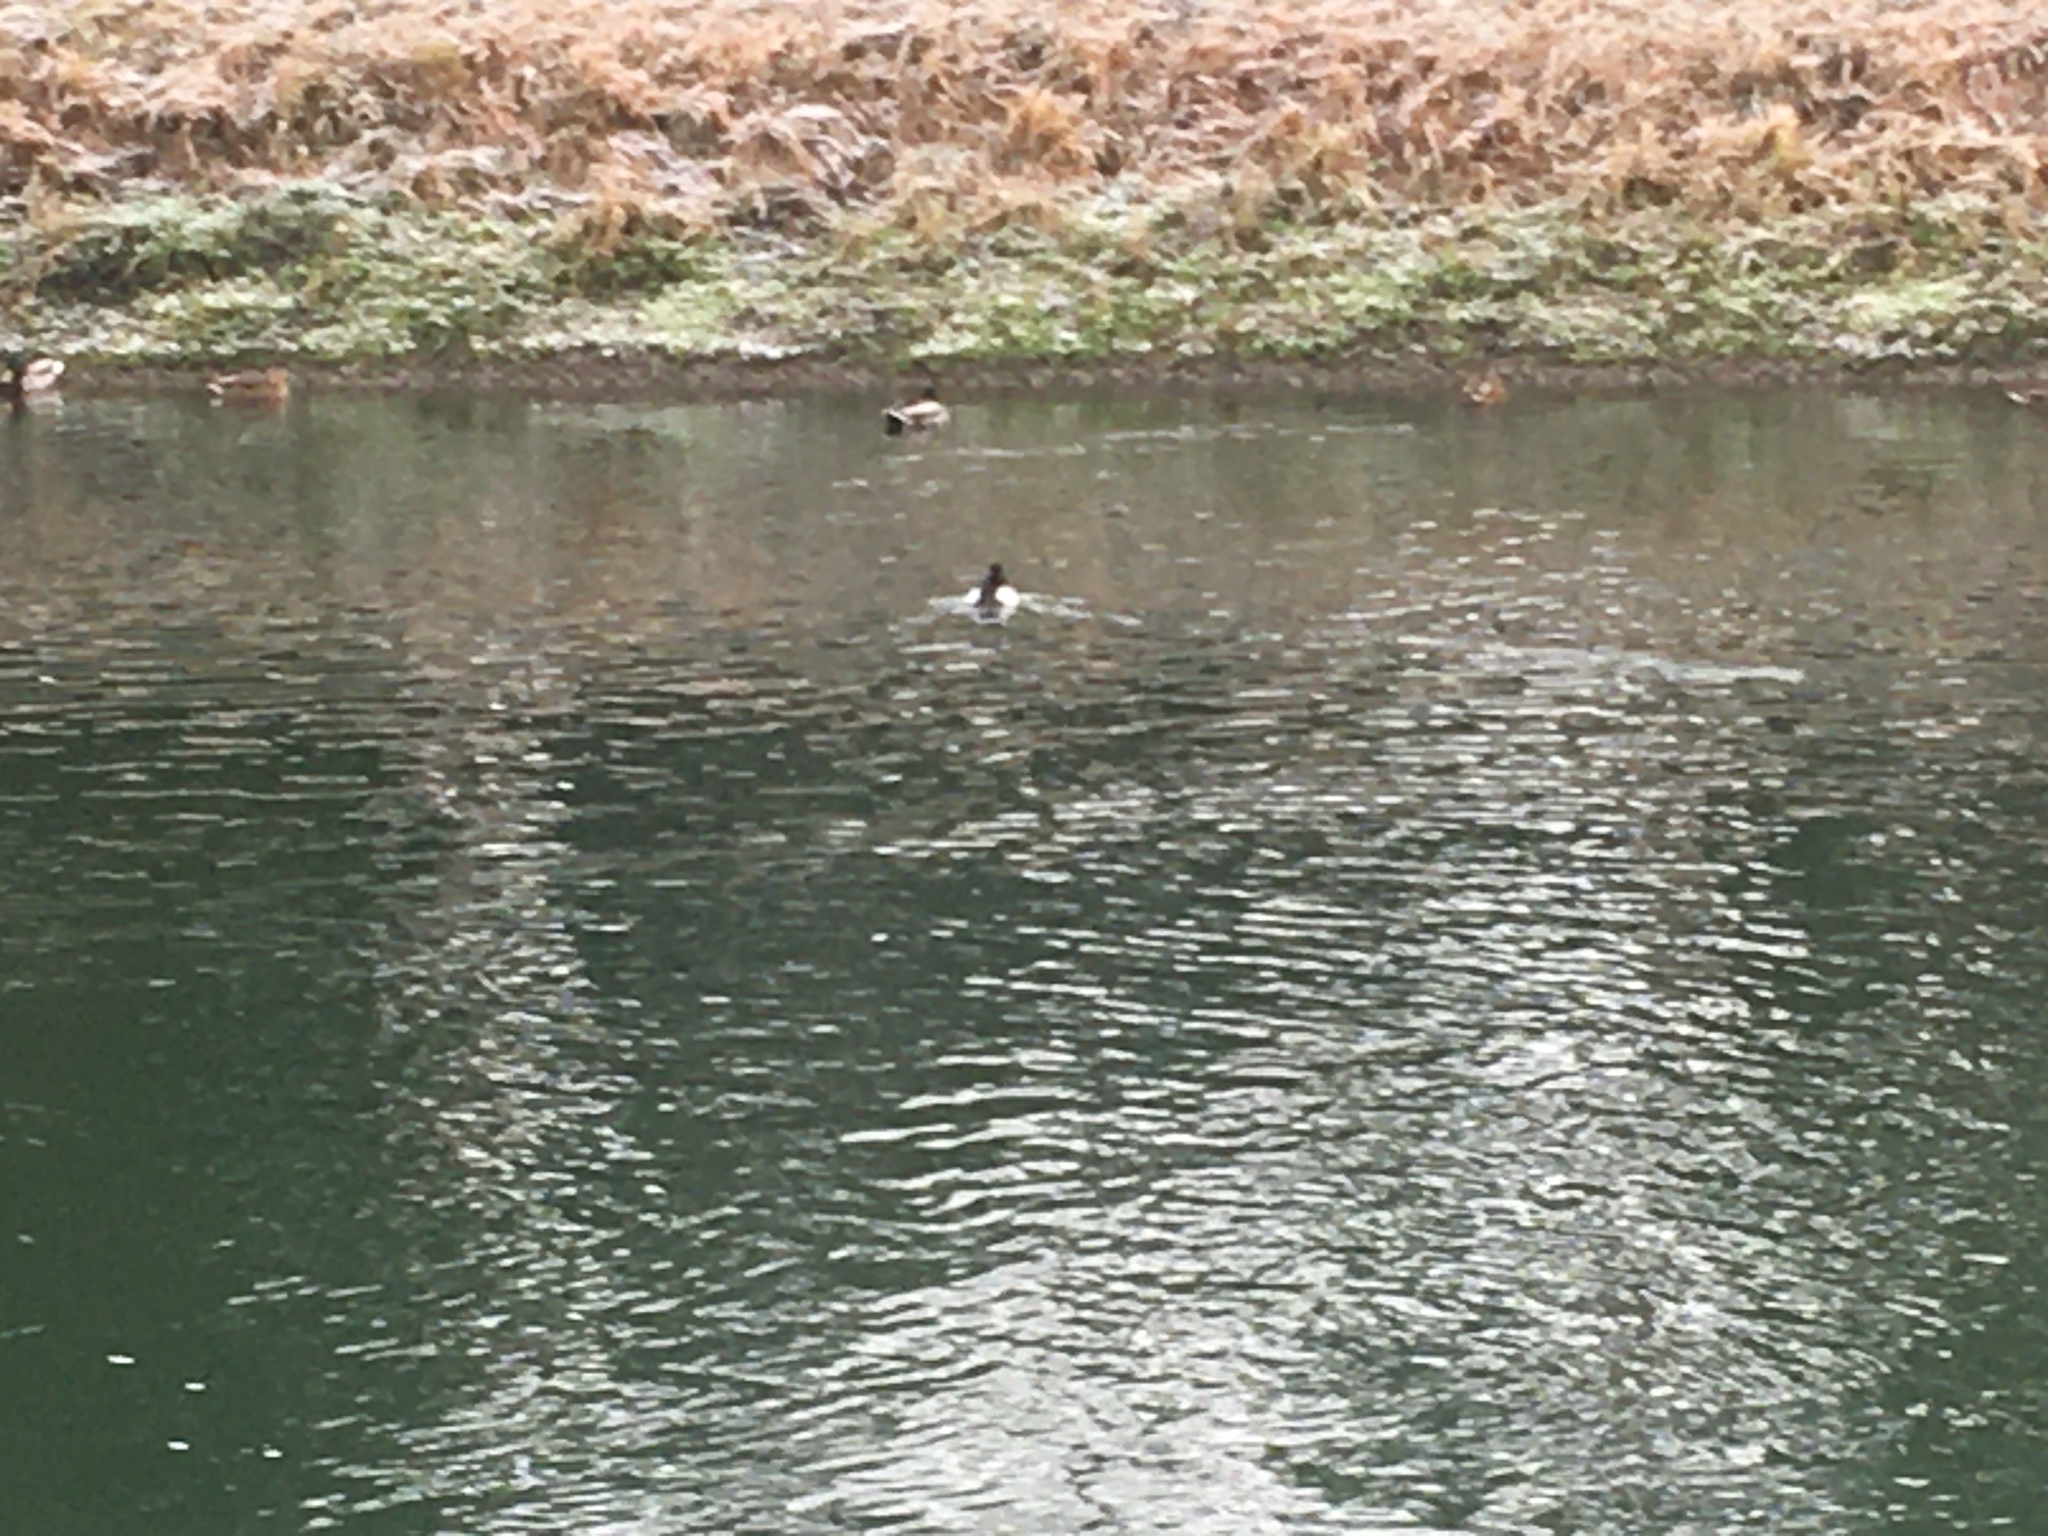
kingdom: Animalia
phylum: Chordata
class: Aves
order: Anseriformes
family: Anatidae
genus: Aythya
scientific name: Aythya fuligula
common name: Tufted duck
